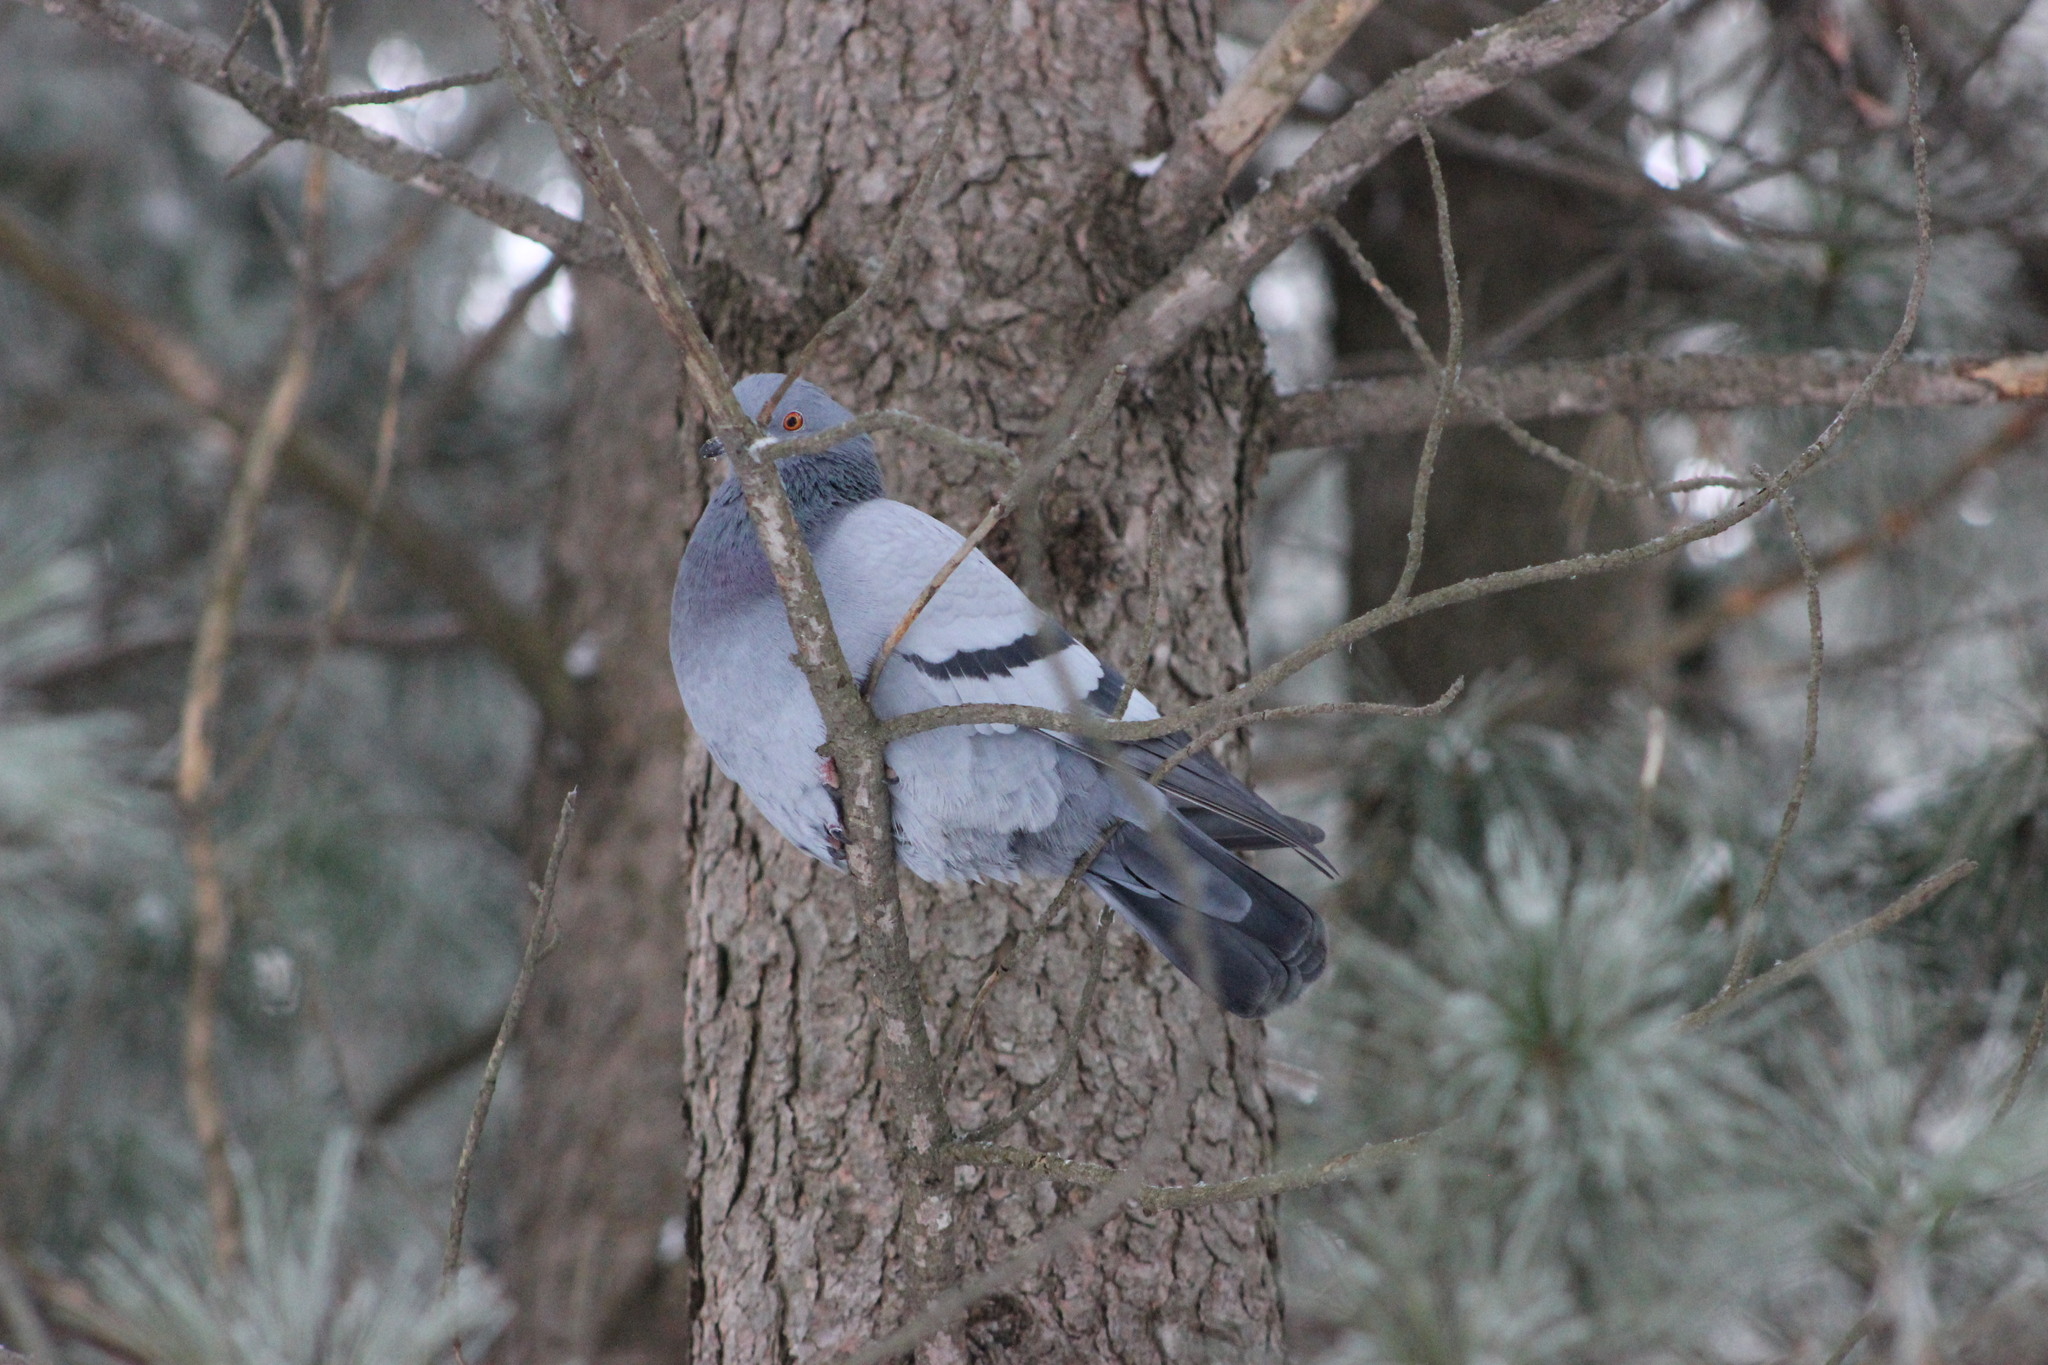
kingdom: Animalia
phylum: Chordata
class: Aves
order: Columbiformes
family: Columbidae
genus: Columba
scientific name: Columba livia
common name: Rock pigeon
